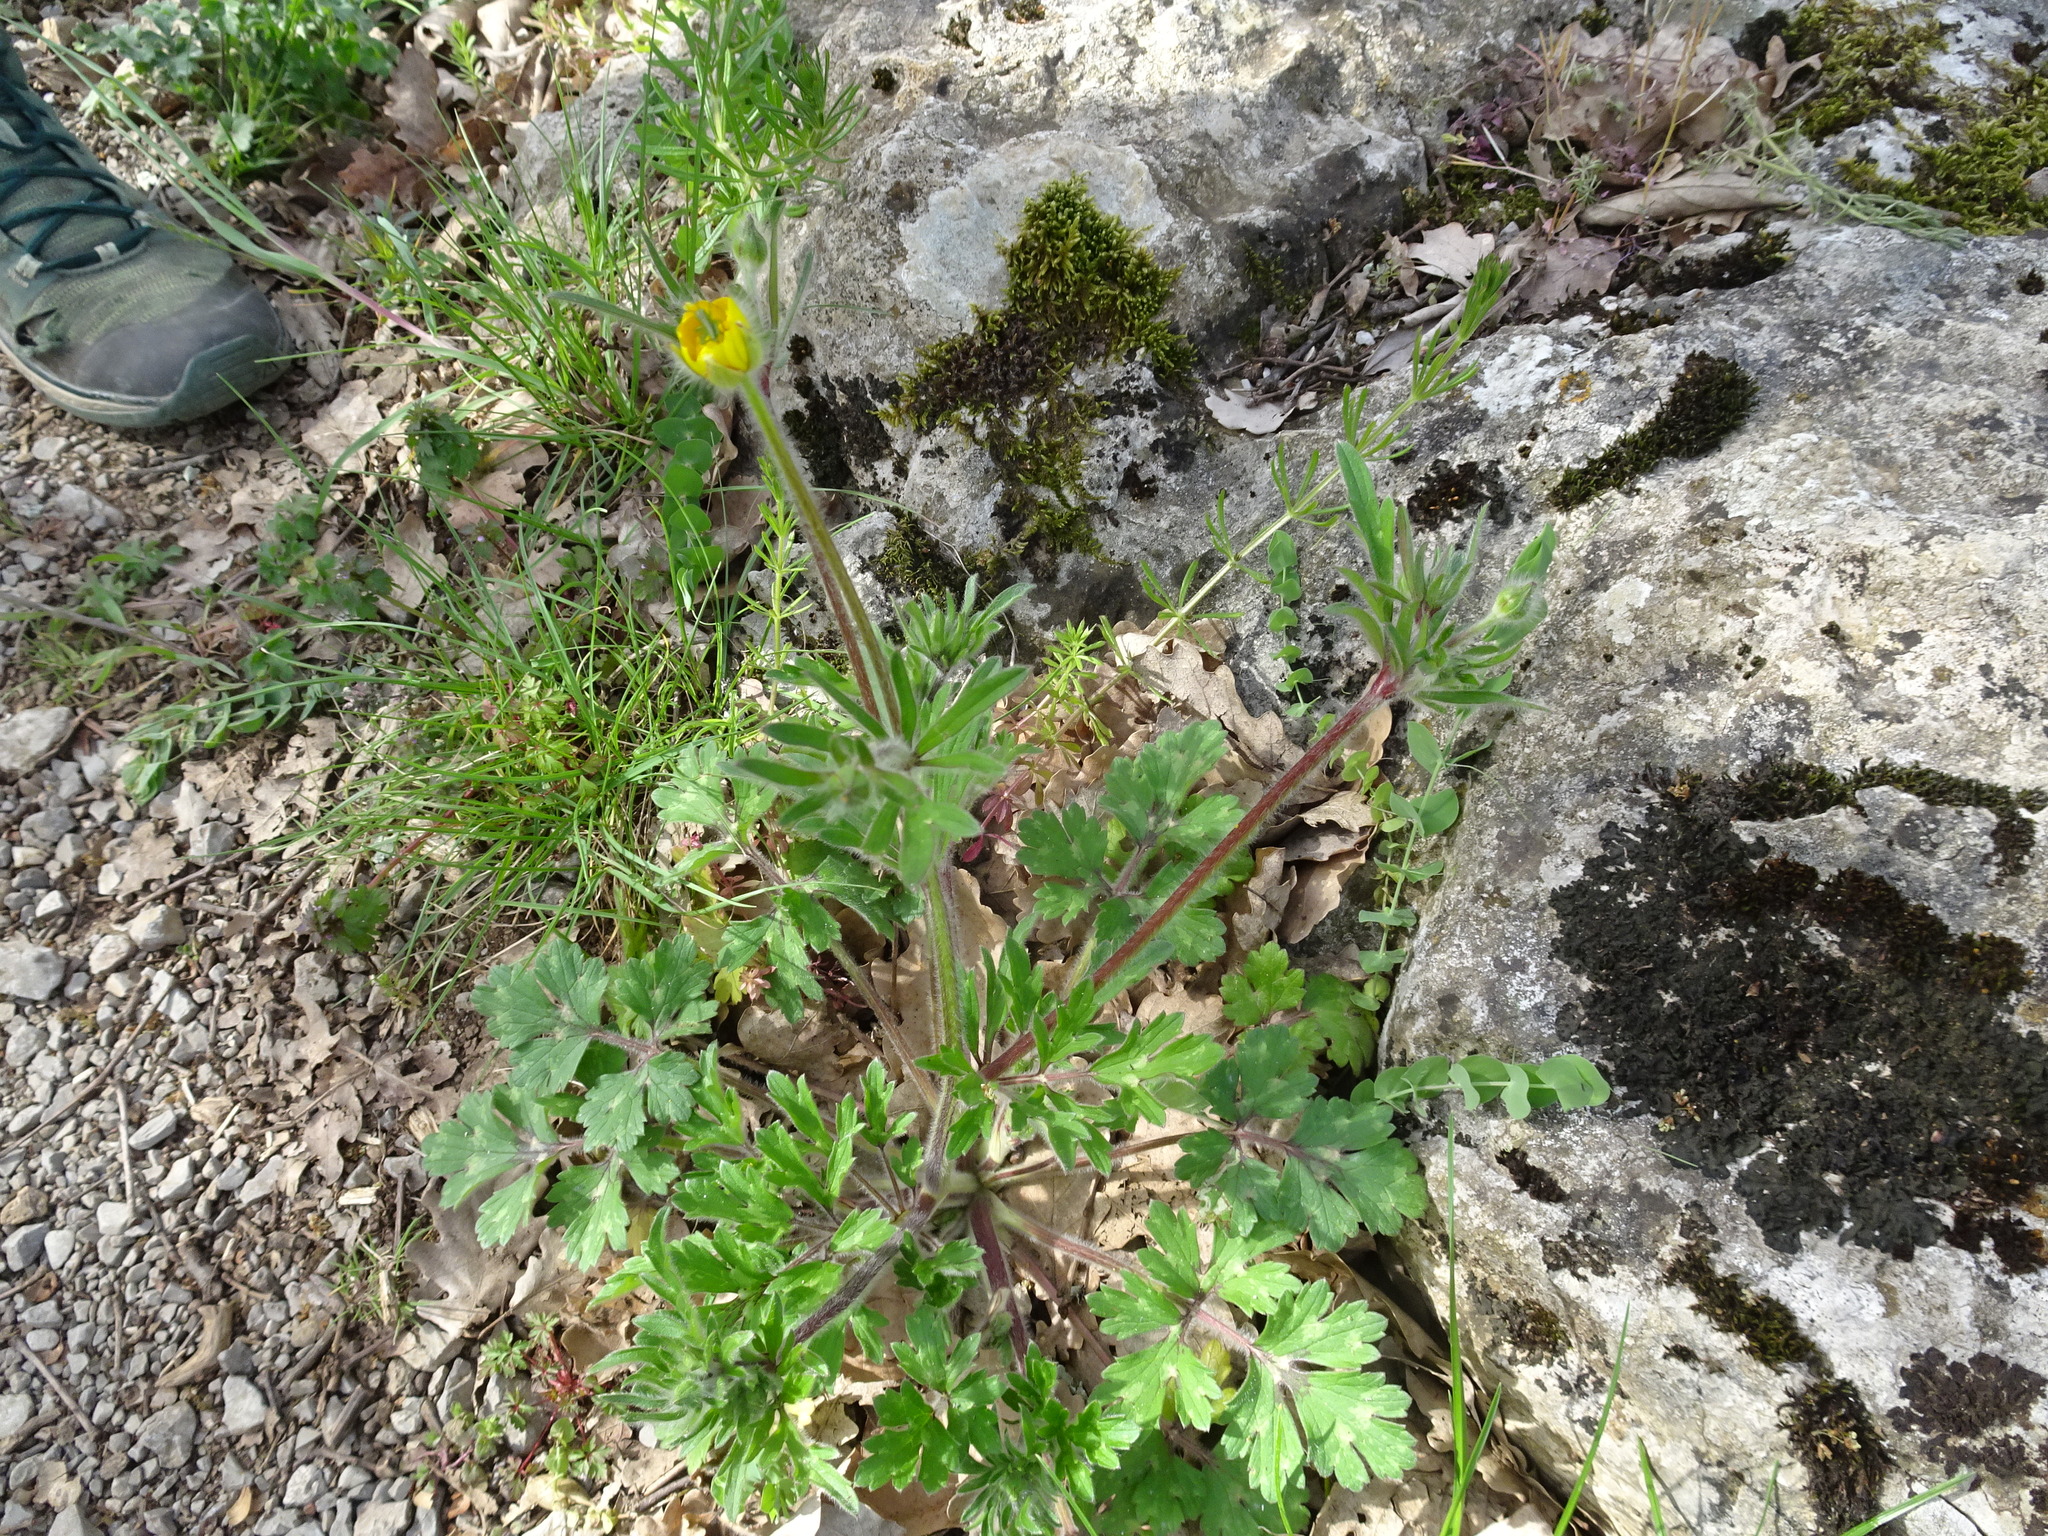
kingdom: Plantae
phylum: Tracheophyta
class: Magnoliopsida
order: Ranunculales
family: Ranunculaceae
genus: Ranunculus
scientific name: Ranunculus bulbosus
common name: Bulbous buttercup
